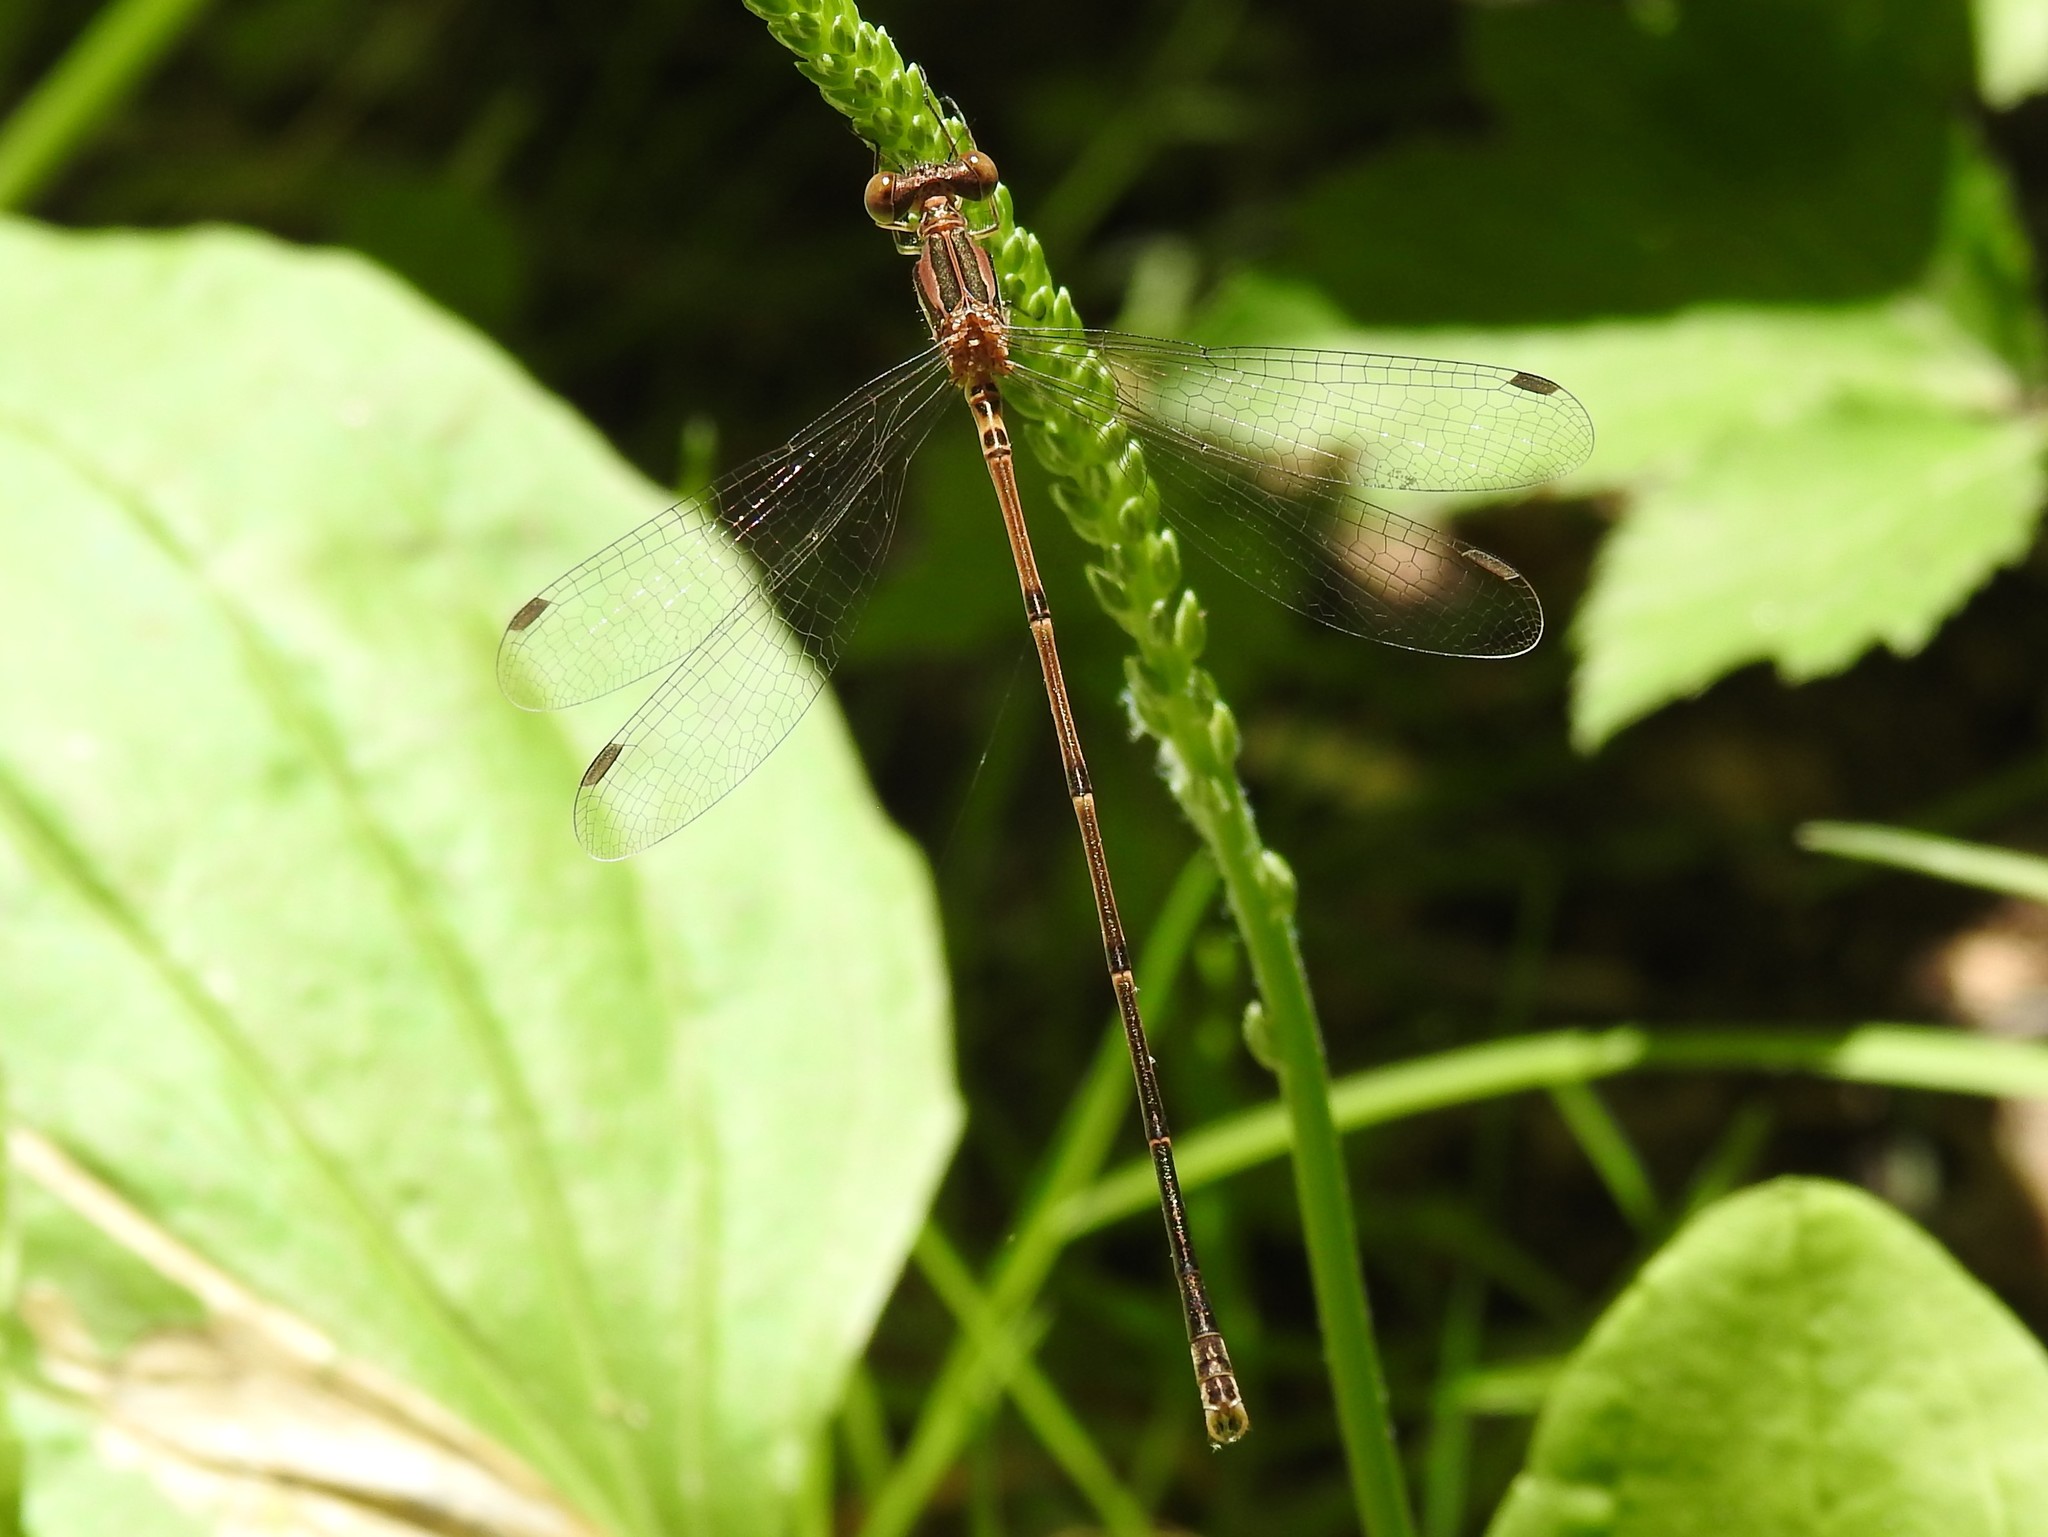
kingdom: Animalia
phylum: Arthropoda
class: Insecta
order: Odonata
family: Lestidae
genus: Lestes
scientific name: Lestes rectangularis
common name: Slender spreadwing
